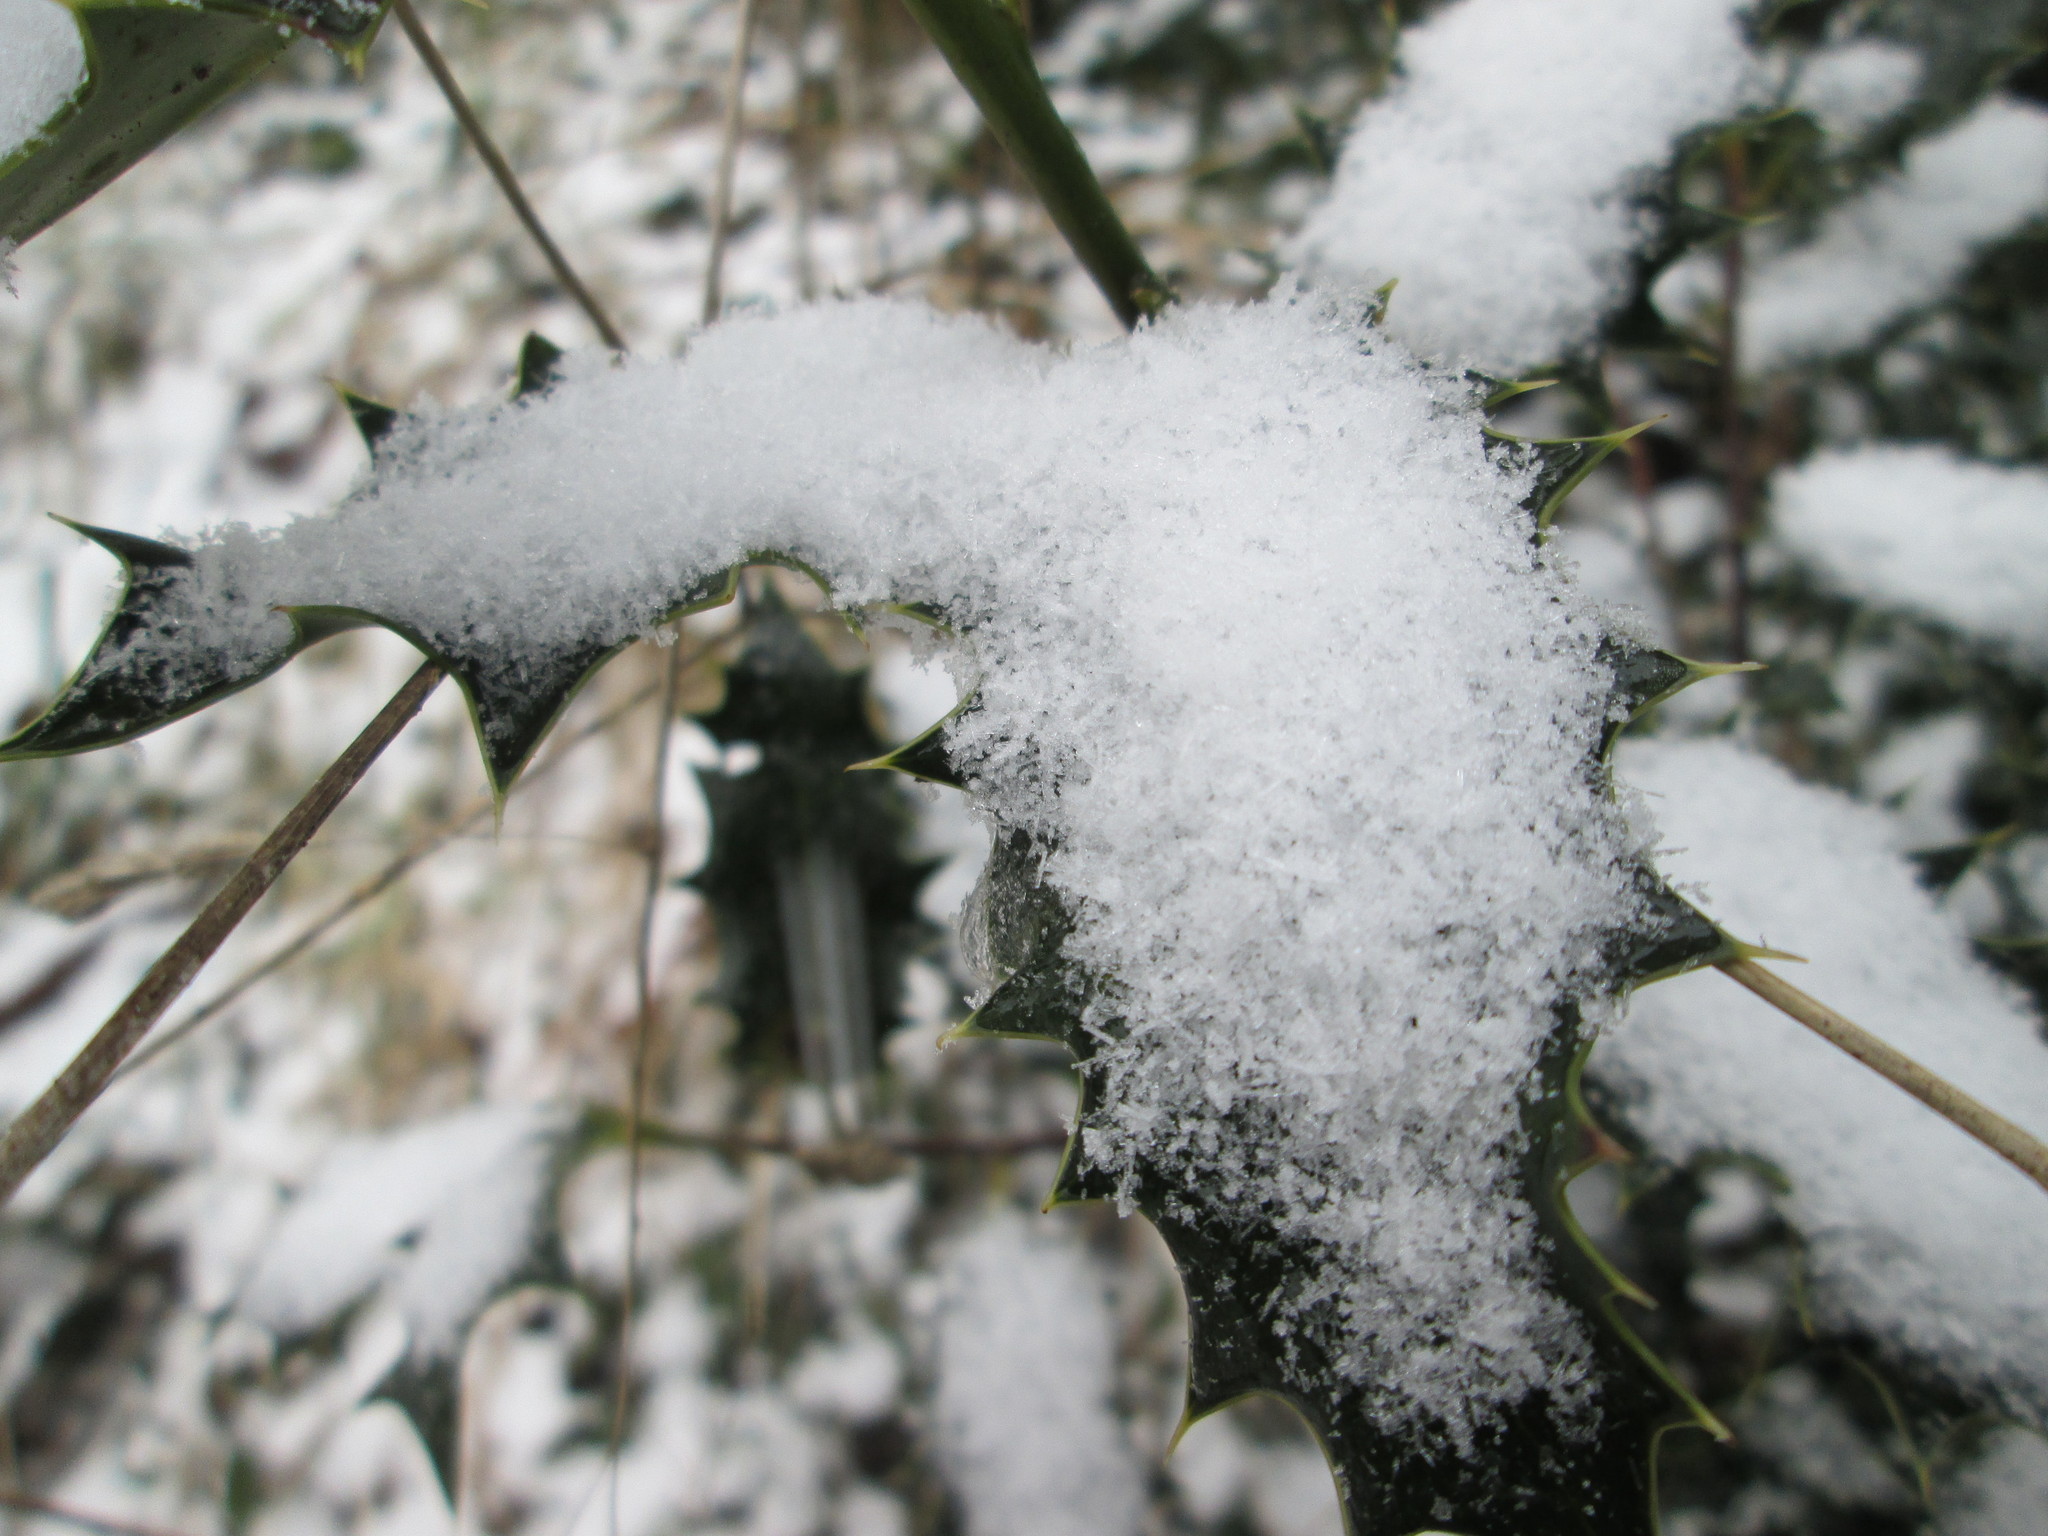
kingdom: Plantae
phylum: Tracheophyta
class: Magnoliopsida
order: Aquifoliales
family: Aquifoliaceae
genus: Ilex
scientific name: Ilex aquifolium
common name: English holly
